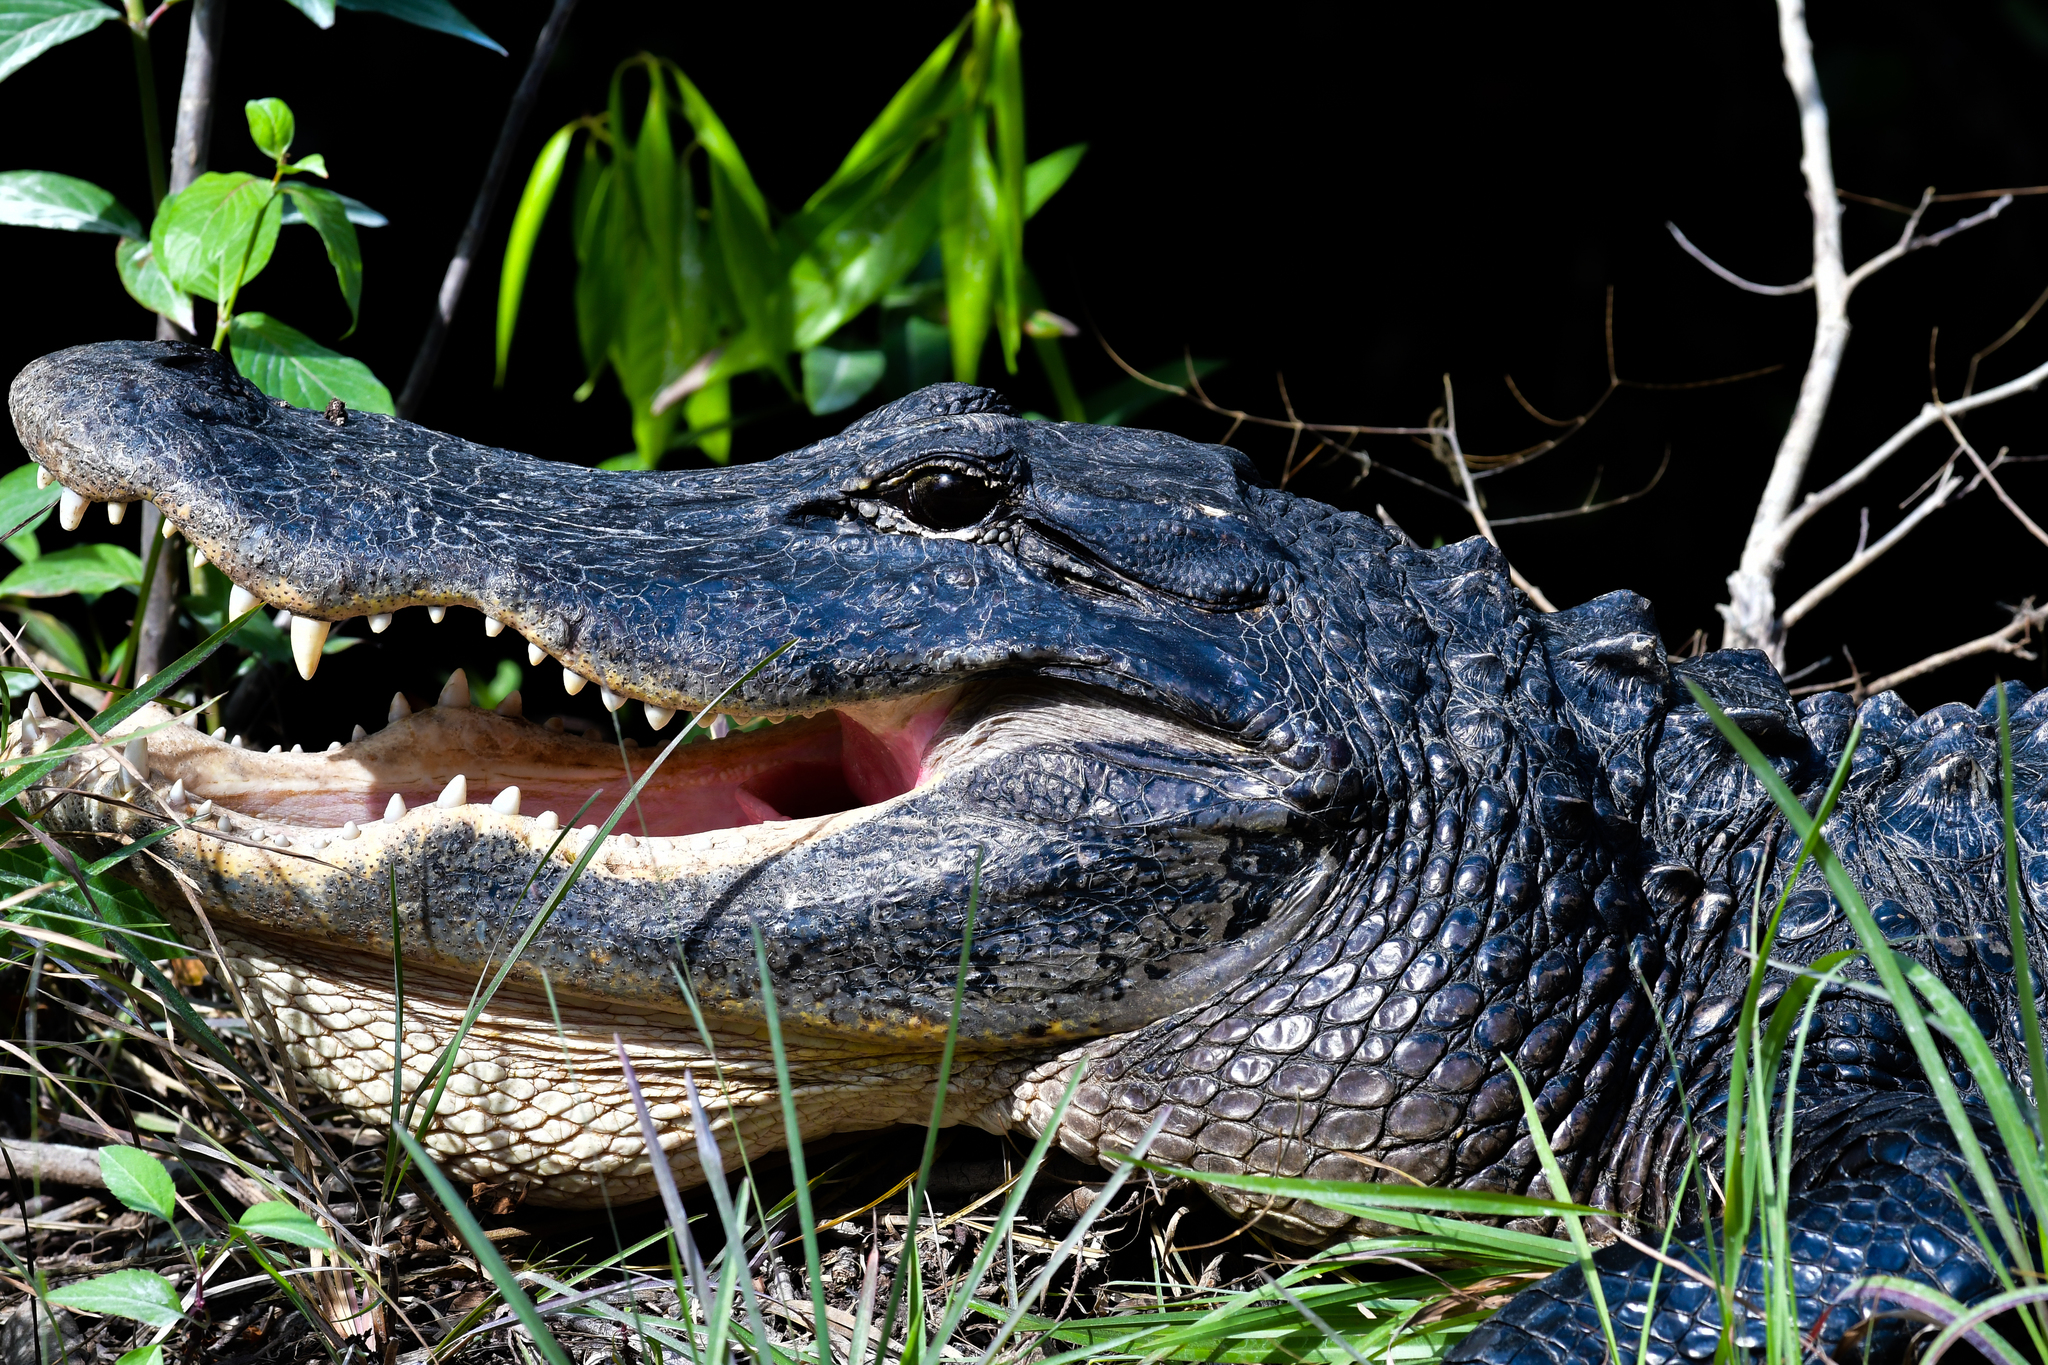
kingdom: Animalia
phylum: Chordata
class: Crocodylia
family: Alligatoridae
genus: Alligator
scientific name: Alligator mississippiensis
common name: American alligator
